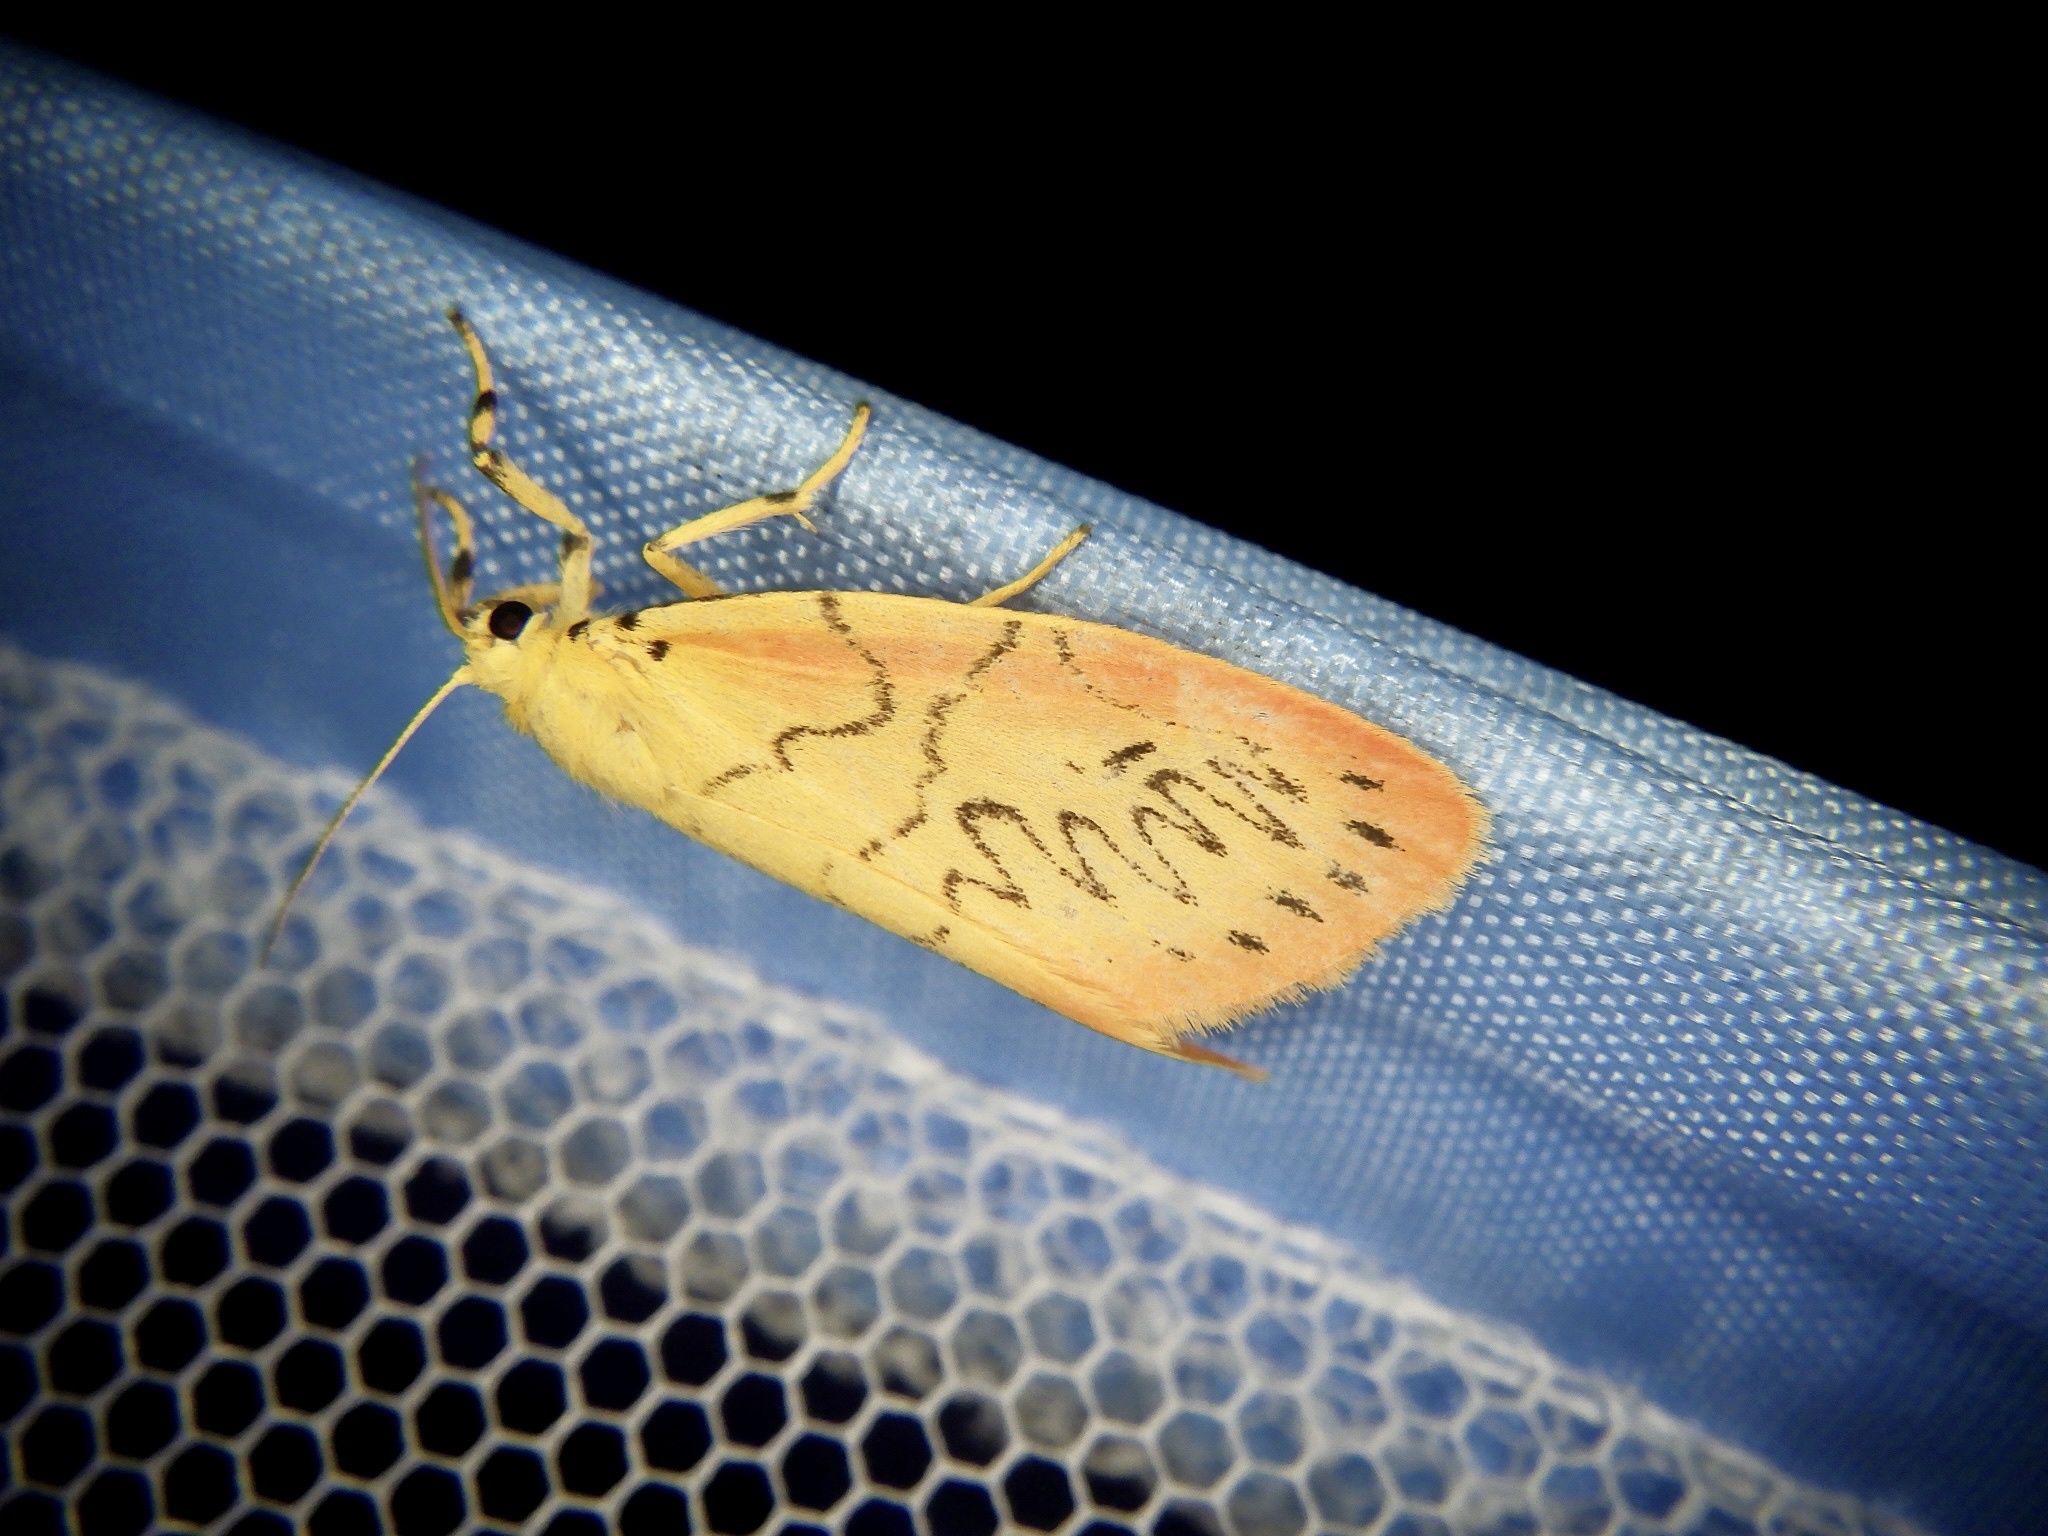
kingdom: Animalia
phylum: Arthropoda
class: Insecta
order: Lepidoptera
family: Erebidae
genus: Miltochrista
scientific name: Miltochrista miniata
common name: Rosy footman
